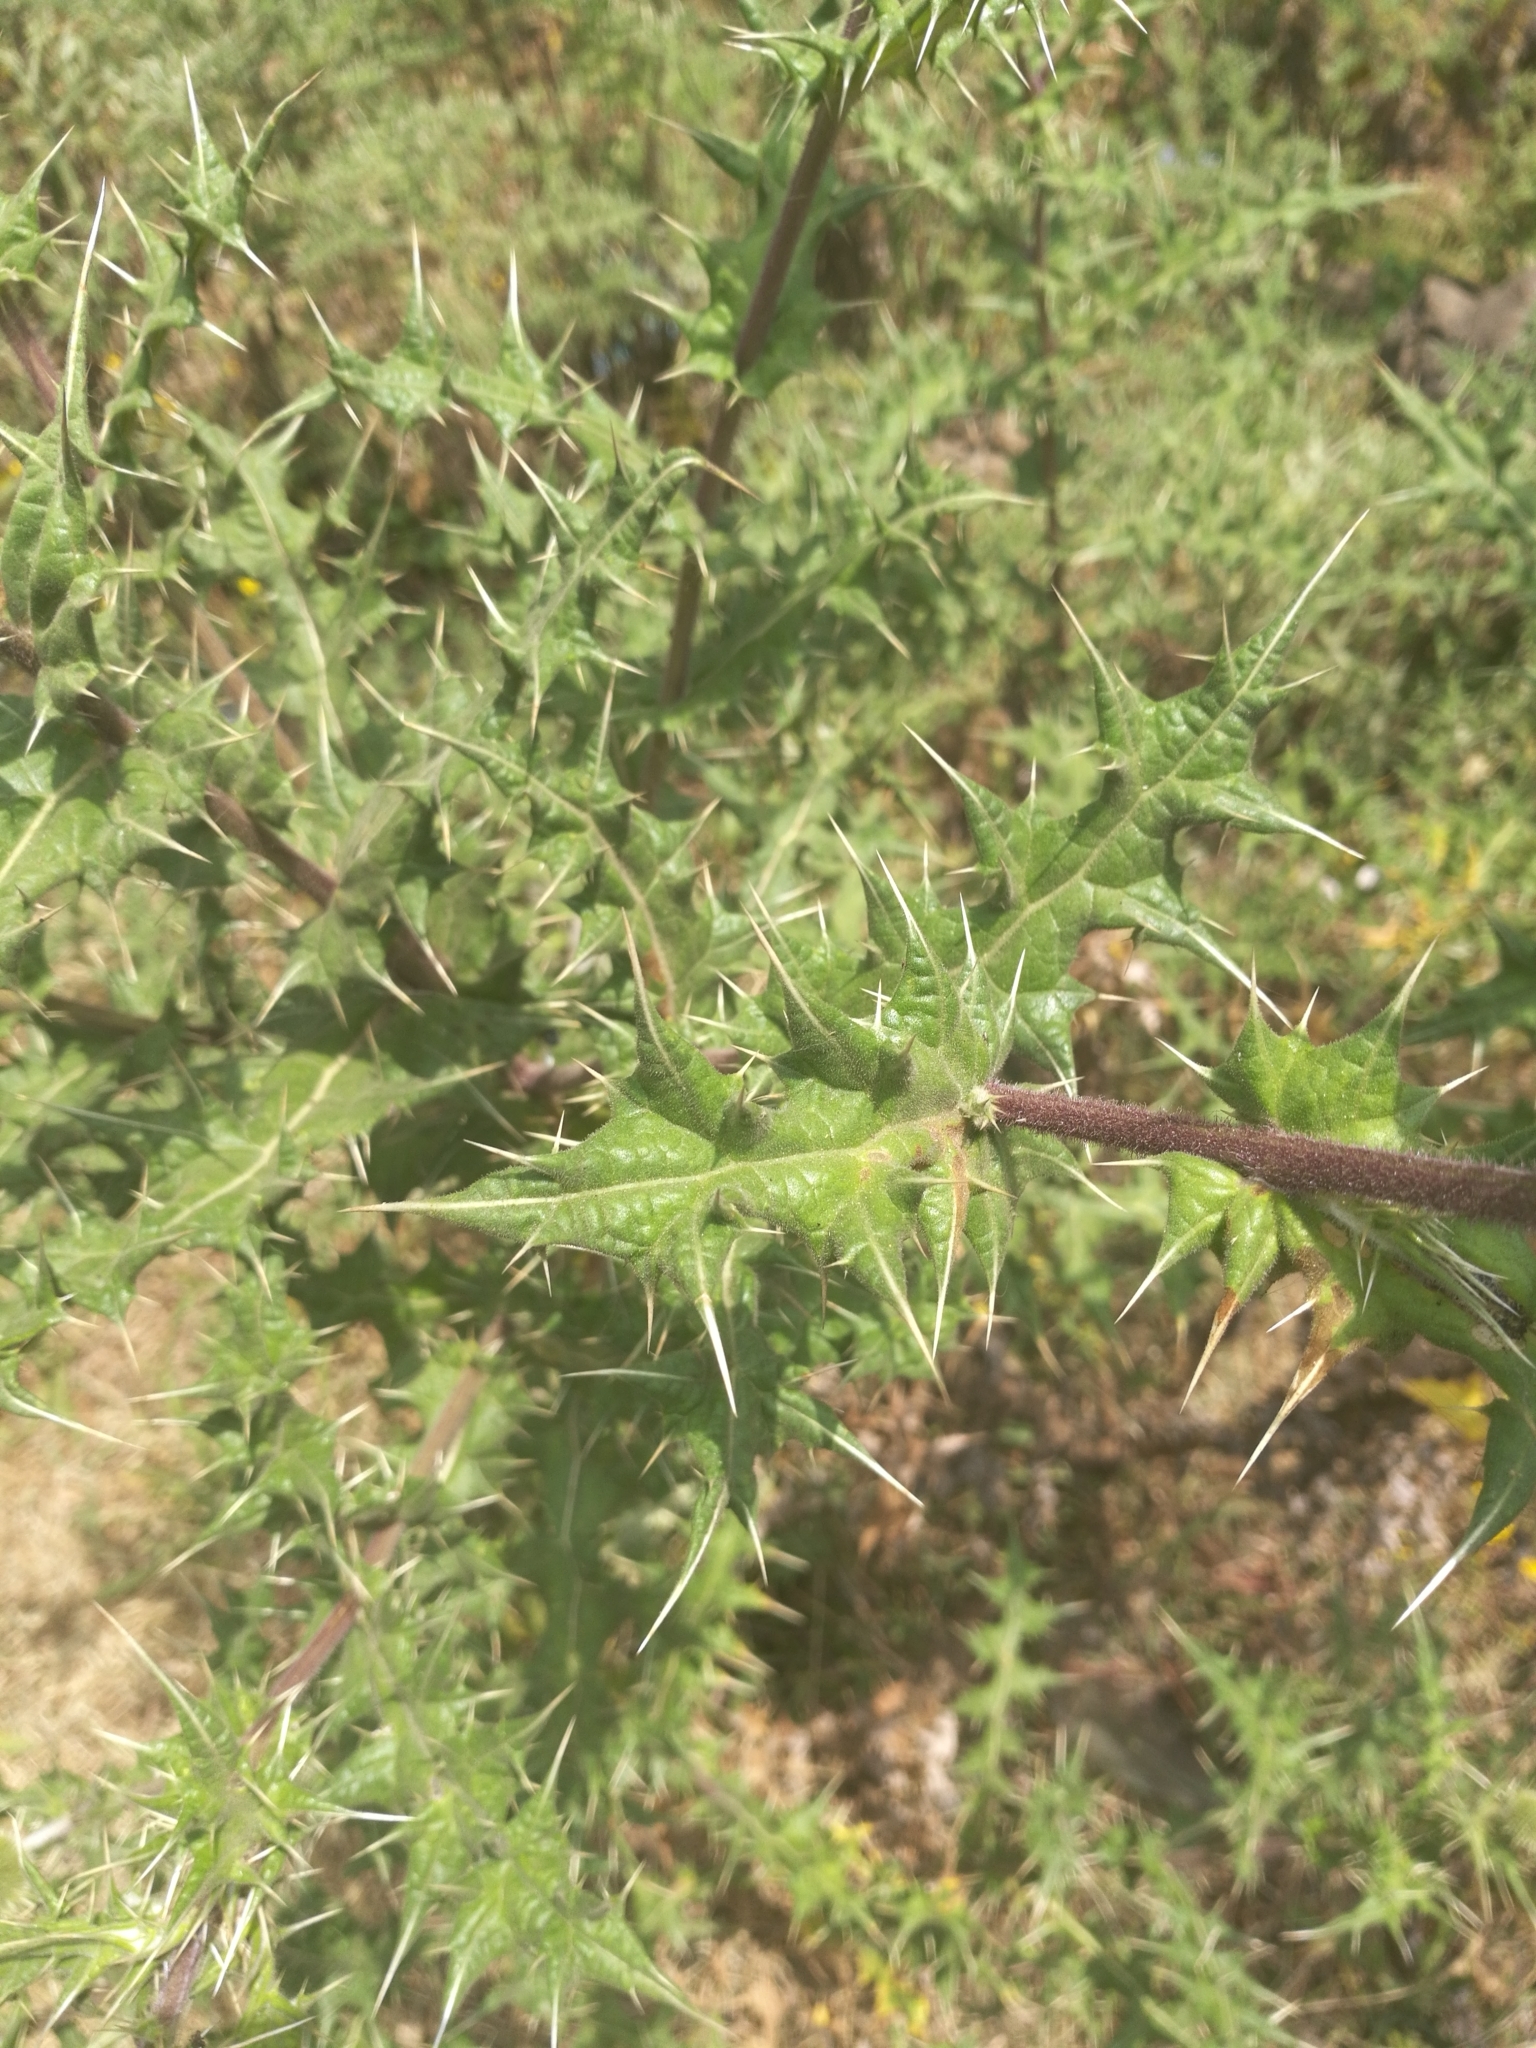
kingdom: Plantae
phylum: Tracheophyta
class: Magnoliopsida
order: Asterales
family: Asteraceae
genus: Echinops
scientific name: Echinops spinosissimus
